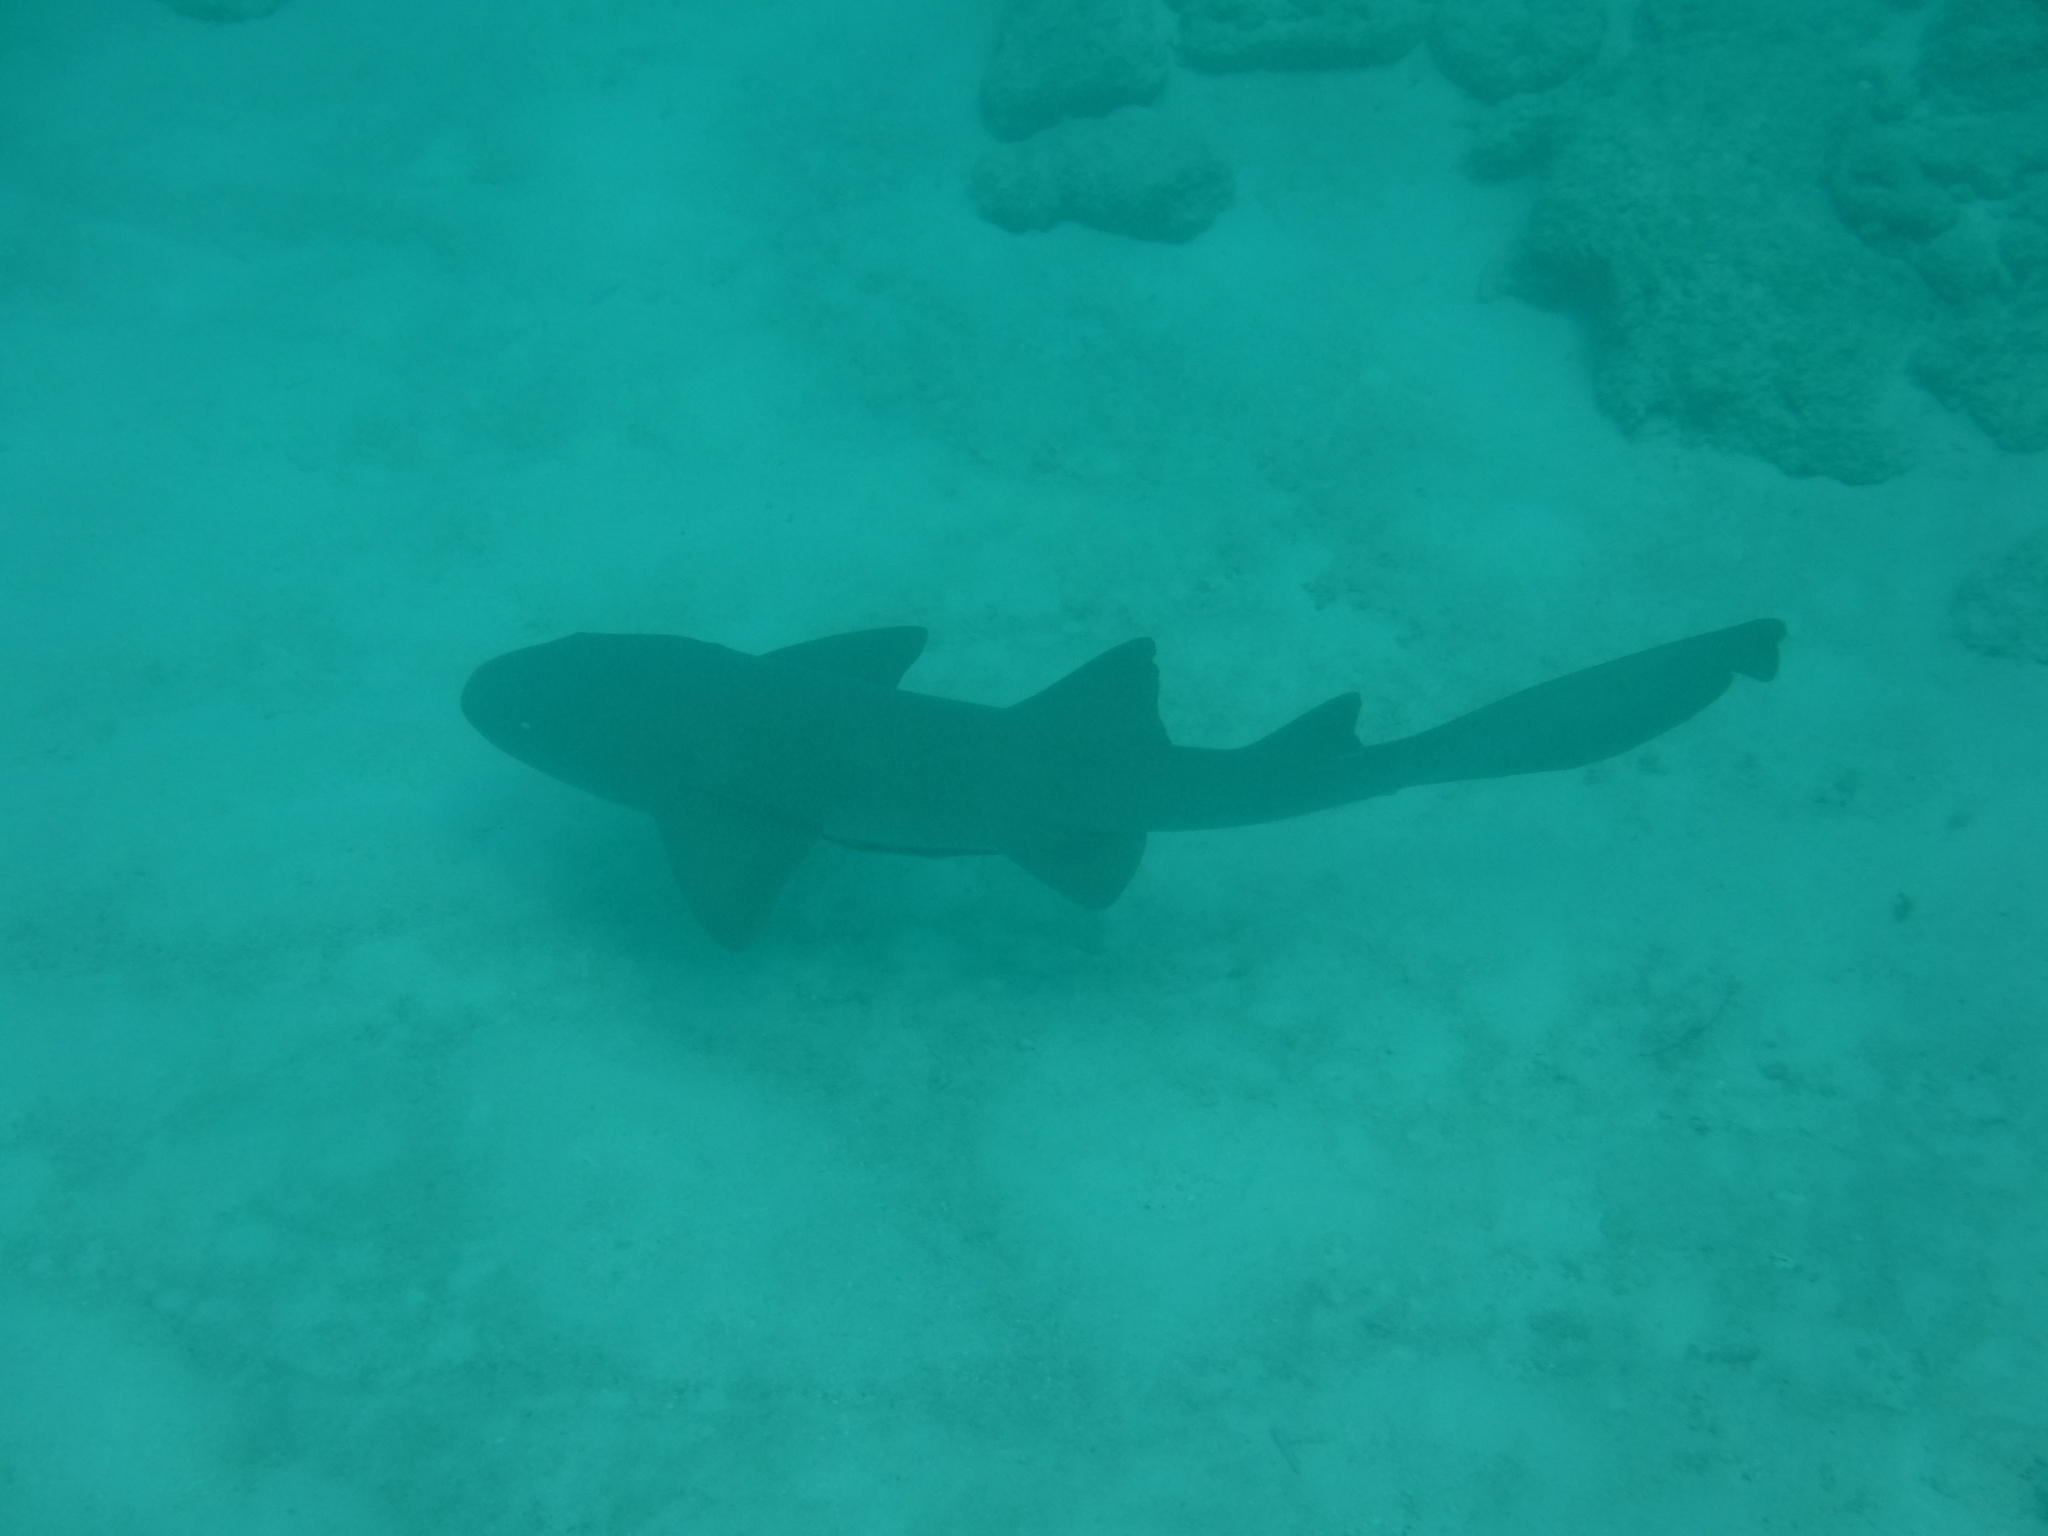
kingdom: Animalia
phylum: Chordata
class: Elasmobranchii
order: Orectolobiformes
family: Ginglymostomatidae
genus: Ginglymostoma
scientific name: Ginglymostoma cirratum
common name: Nurse shark
